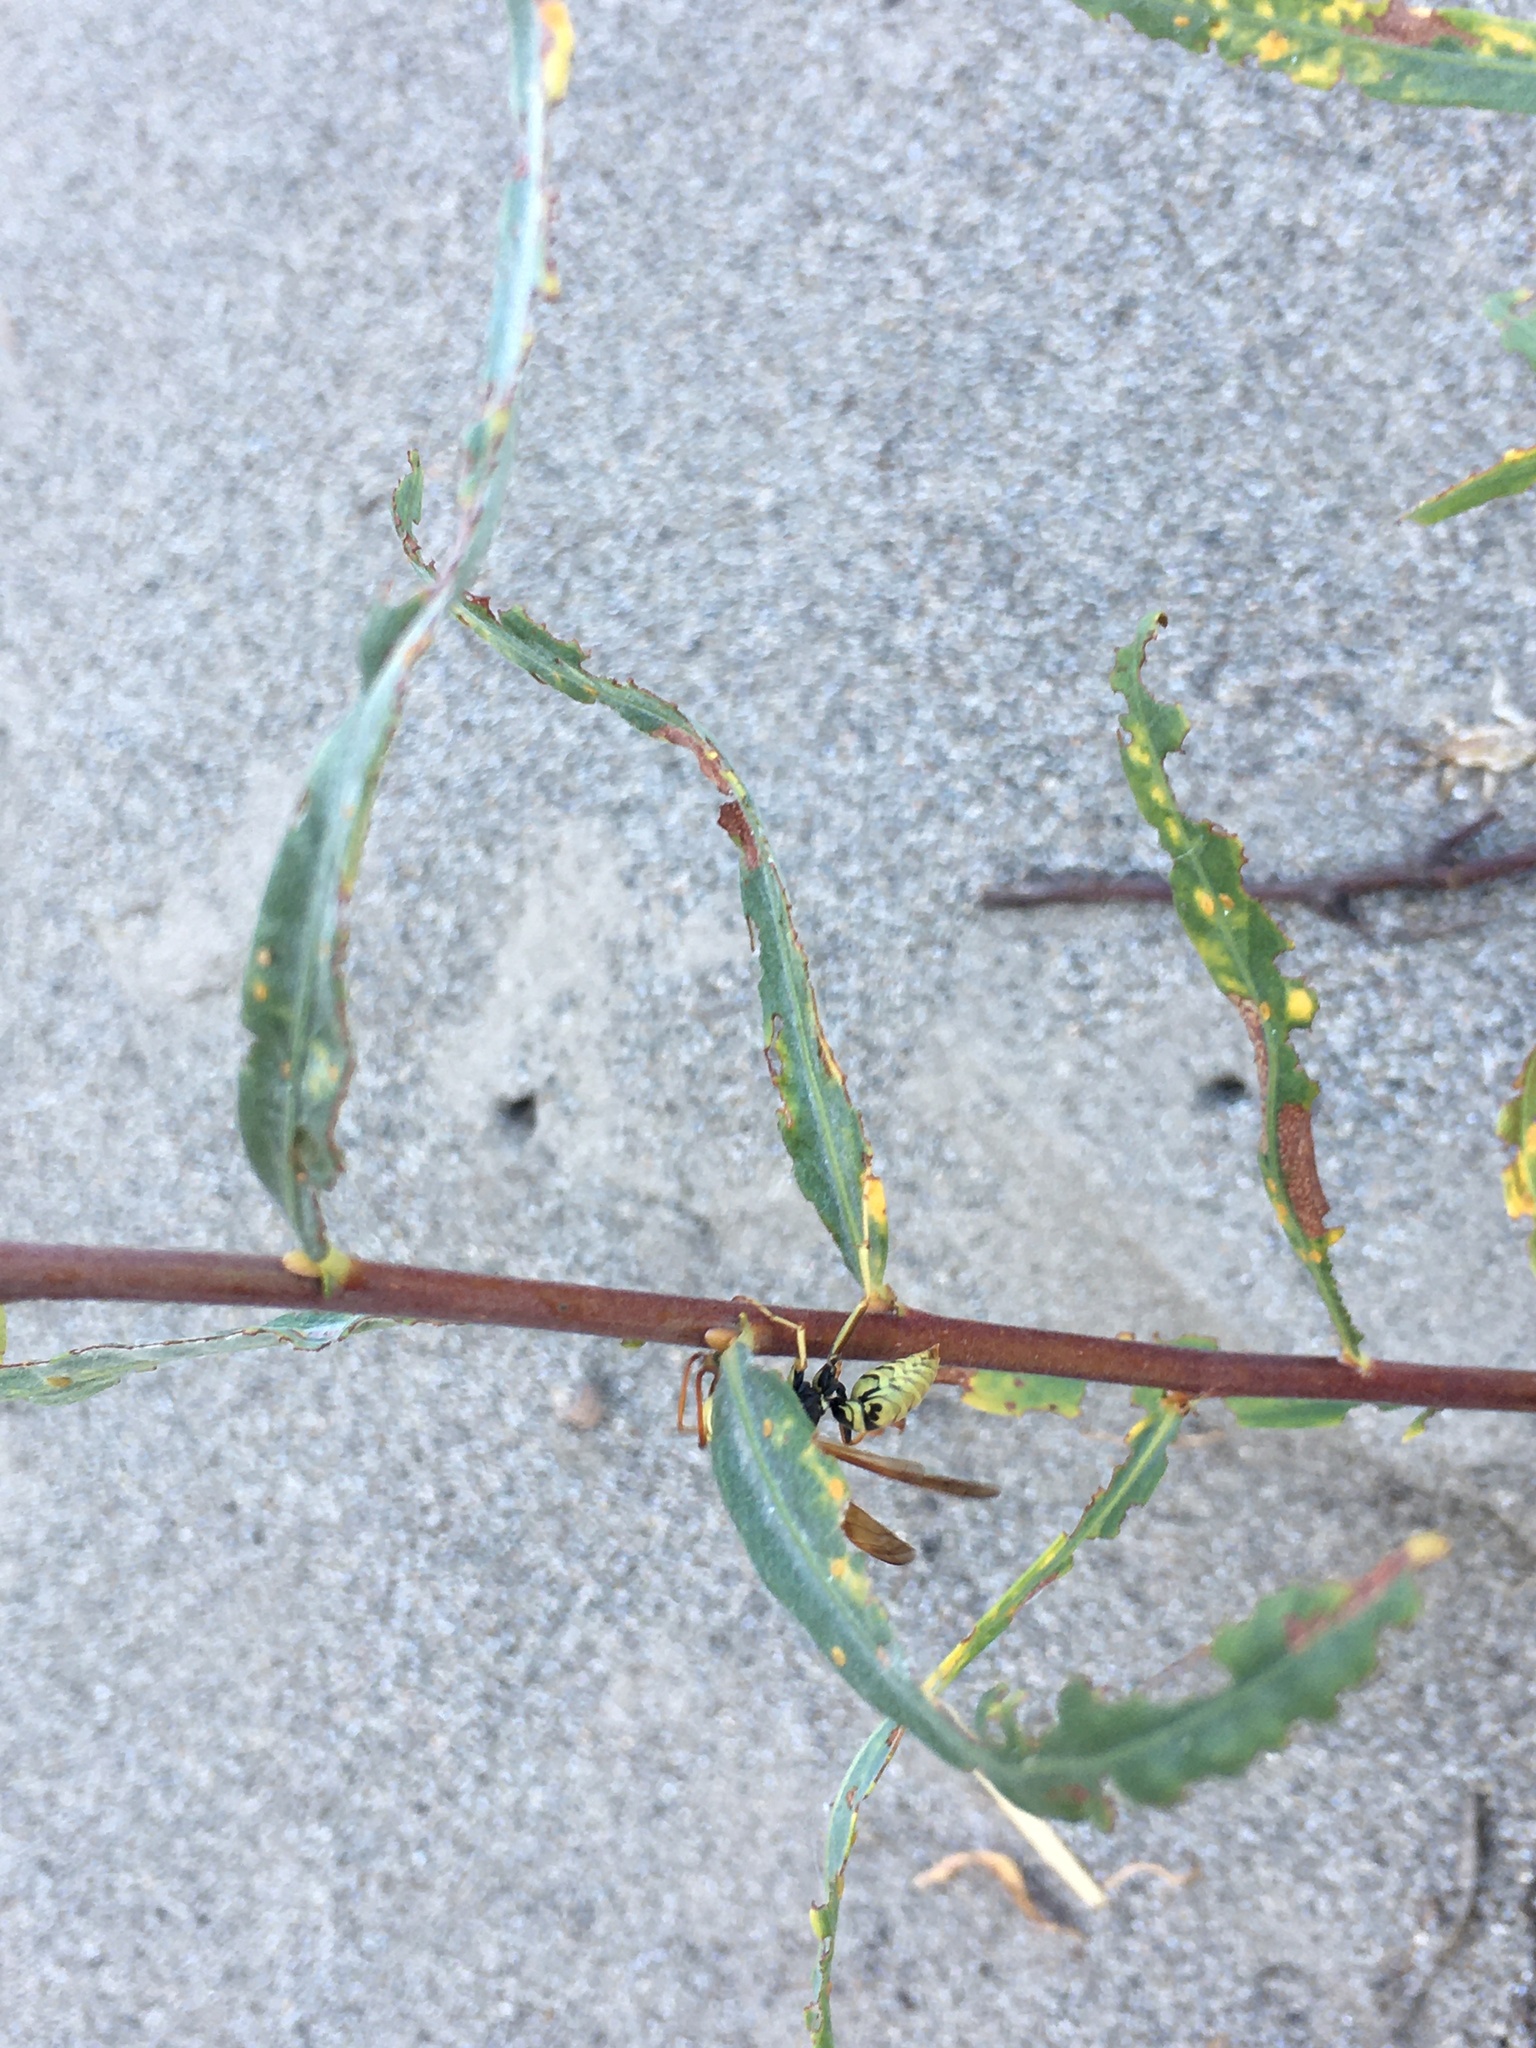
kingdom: Animalia
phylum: Arthropoda
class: Insecta
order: Hymenoptera
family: Eumenidae
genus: Polistes
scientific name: Polistes aurifer
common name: Paper wasp
